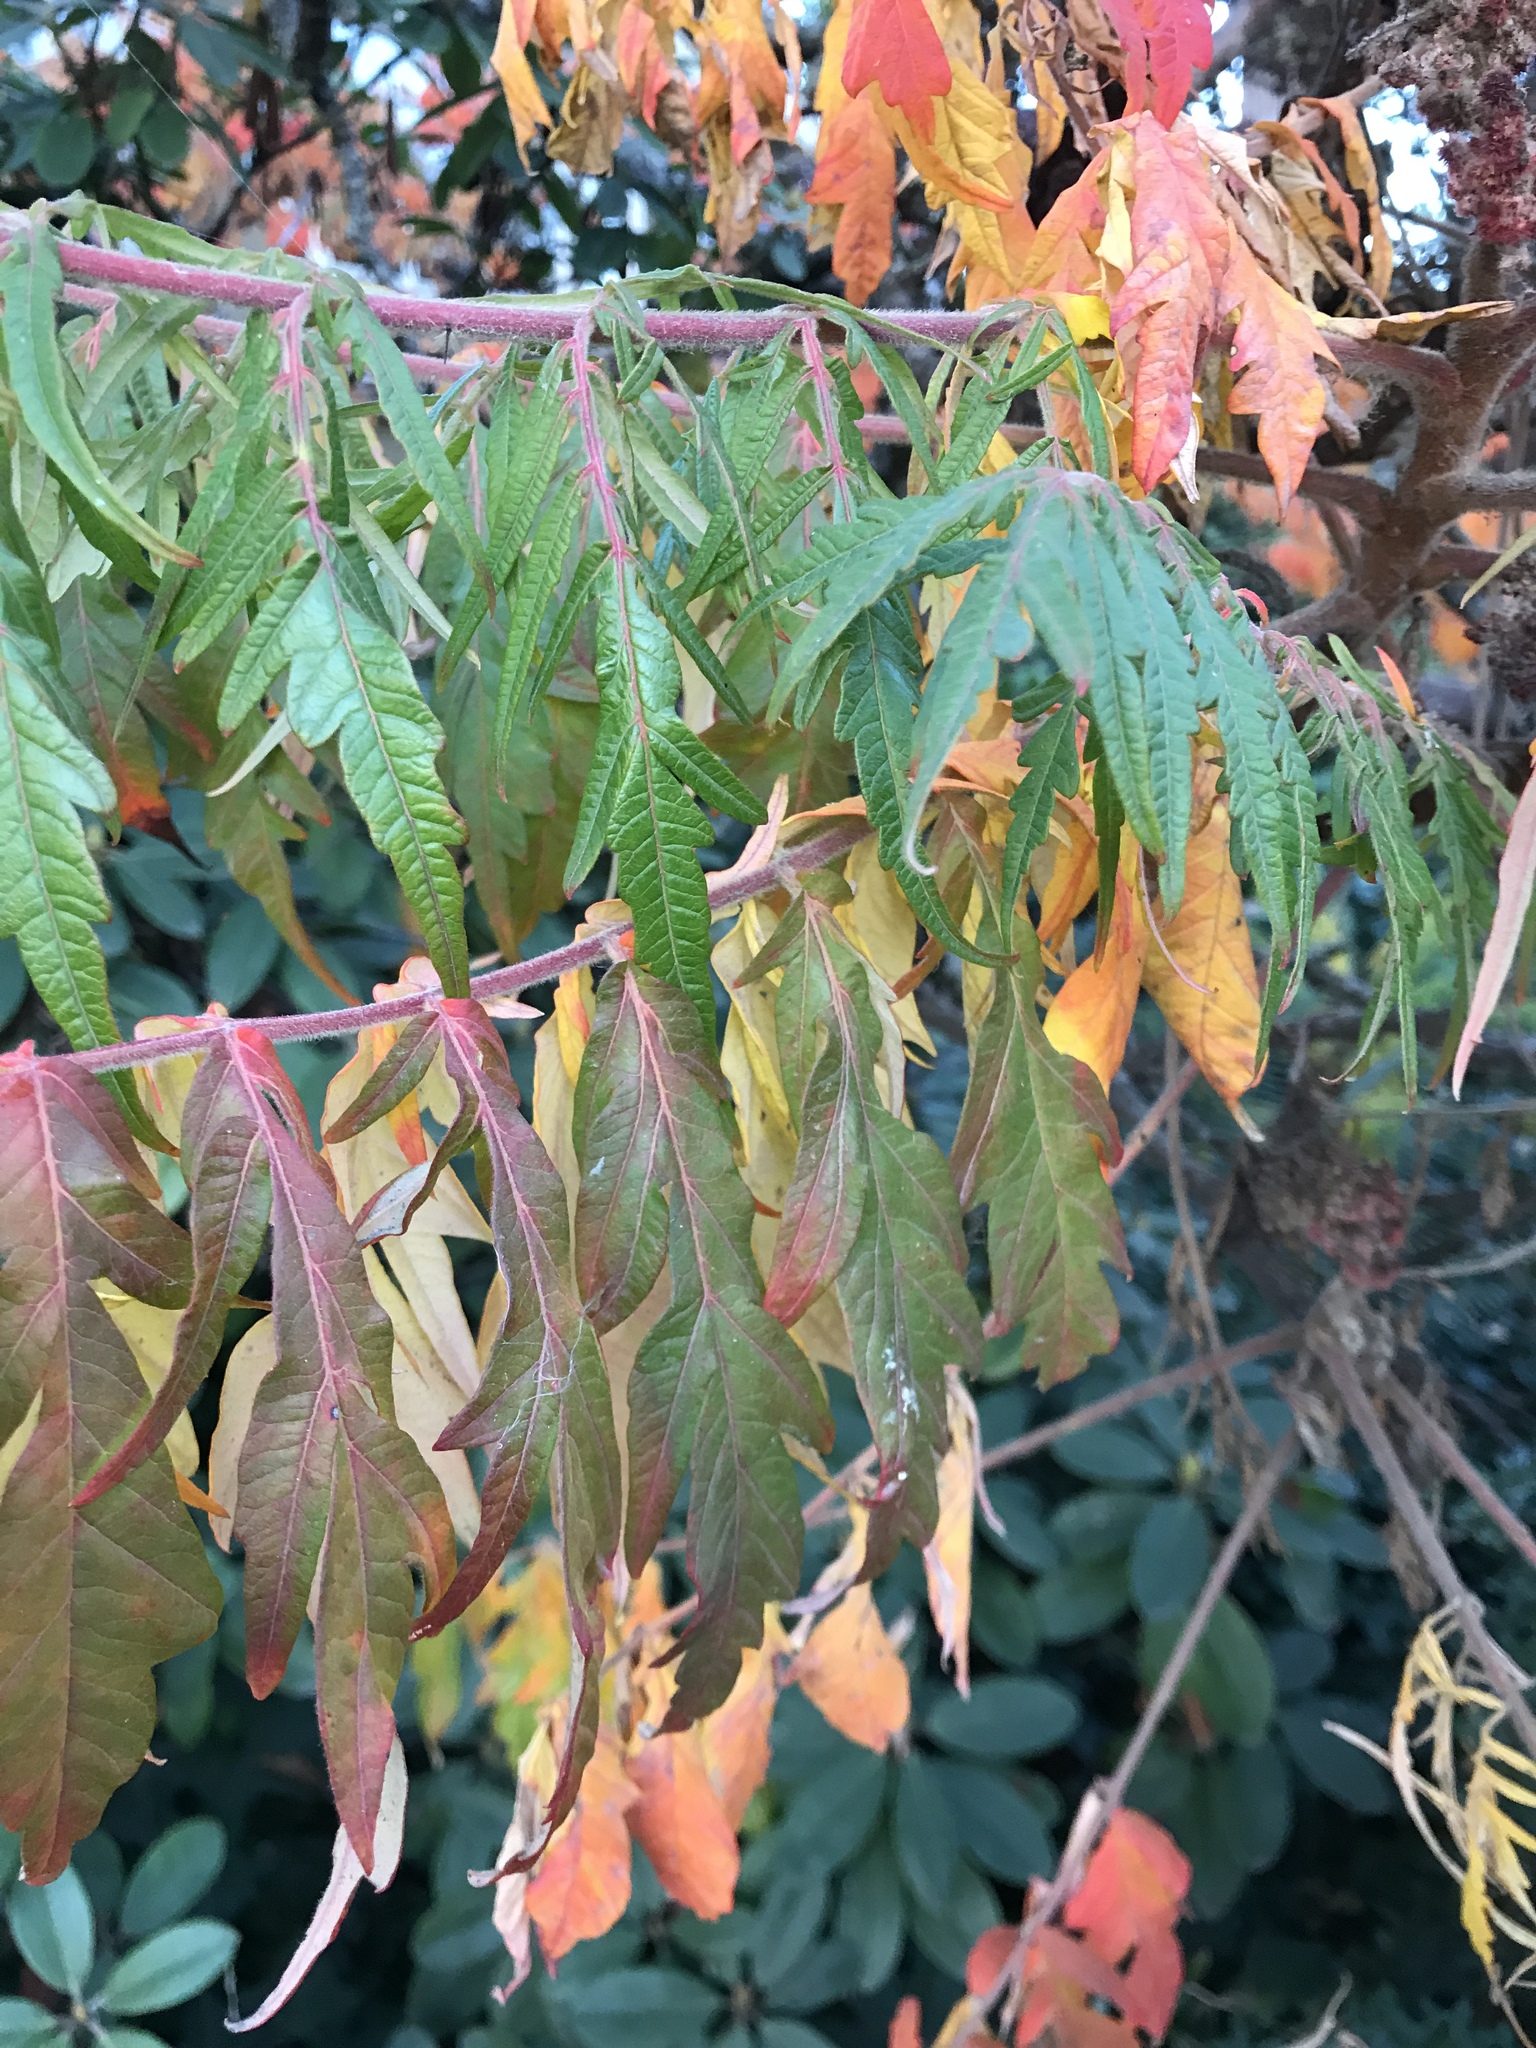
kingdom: Plantae
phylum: Tracheophyta
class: Magnoliopsida
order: Sapindales
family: Anacardiaceae
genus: Rhus
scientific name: Rhus typhina
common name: Staghorn sumac
